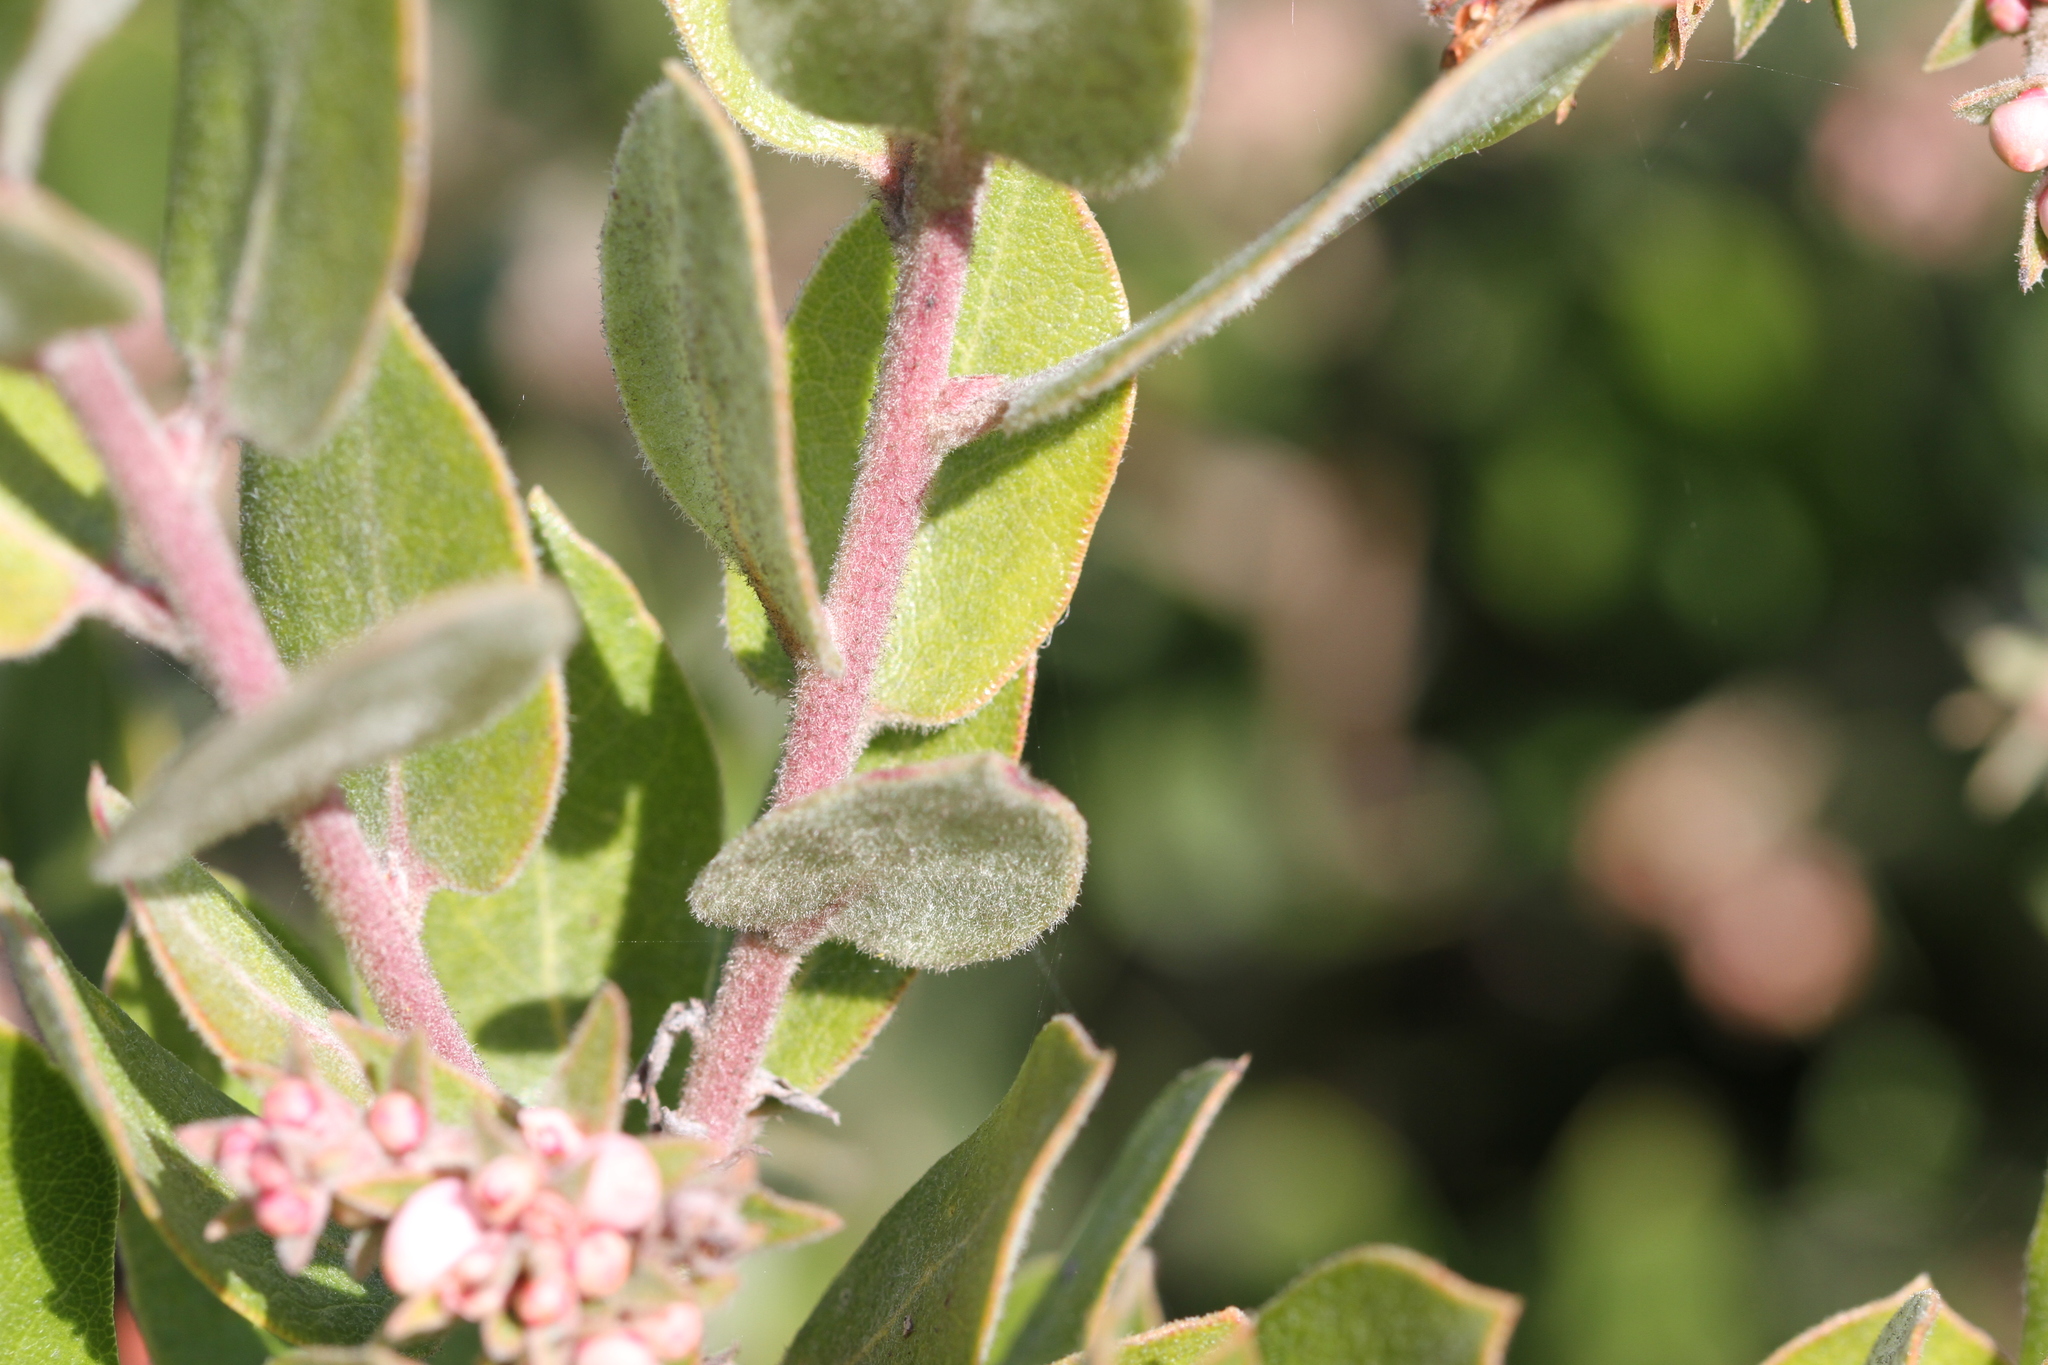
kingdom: Plantae
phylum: Tracheophyta
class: Magnoliopsida
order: Ericales
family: Ericaceae
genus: Arctostaphylos
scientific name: Arctostaphylos tomentosa
